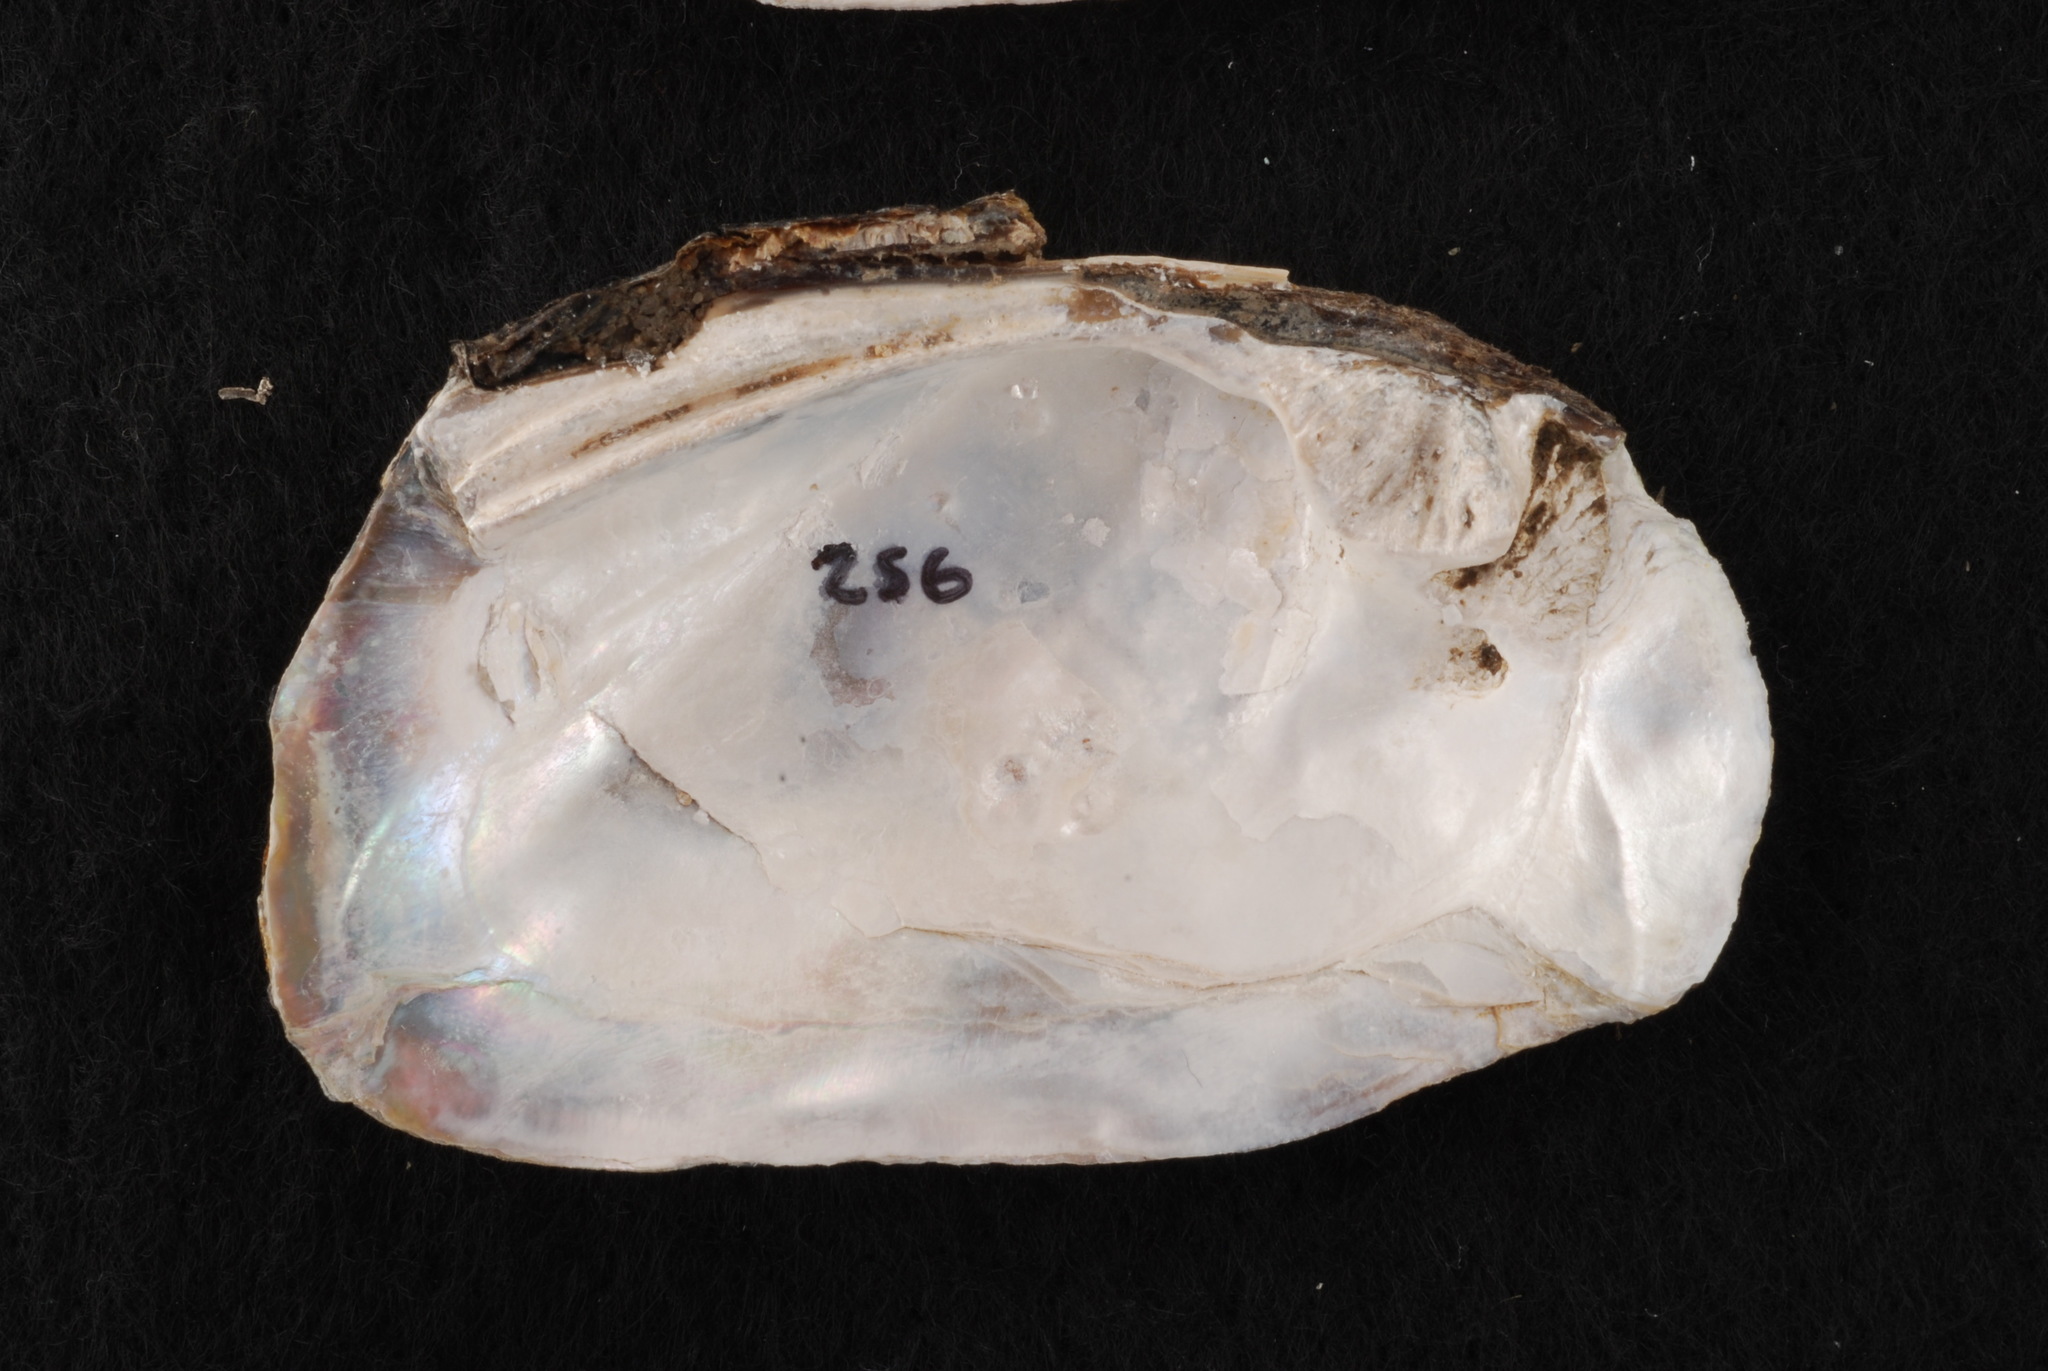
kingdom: Animalia
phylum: Mollusca
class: Bivalvia
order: Unionida
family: Unionidae
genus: Plectomerus
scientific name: Plectomerus dombeyanus
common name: Bankclimber
